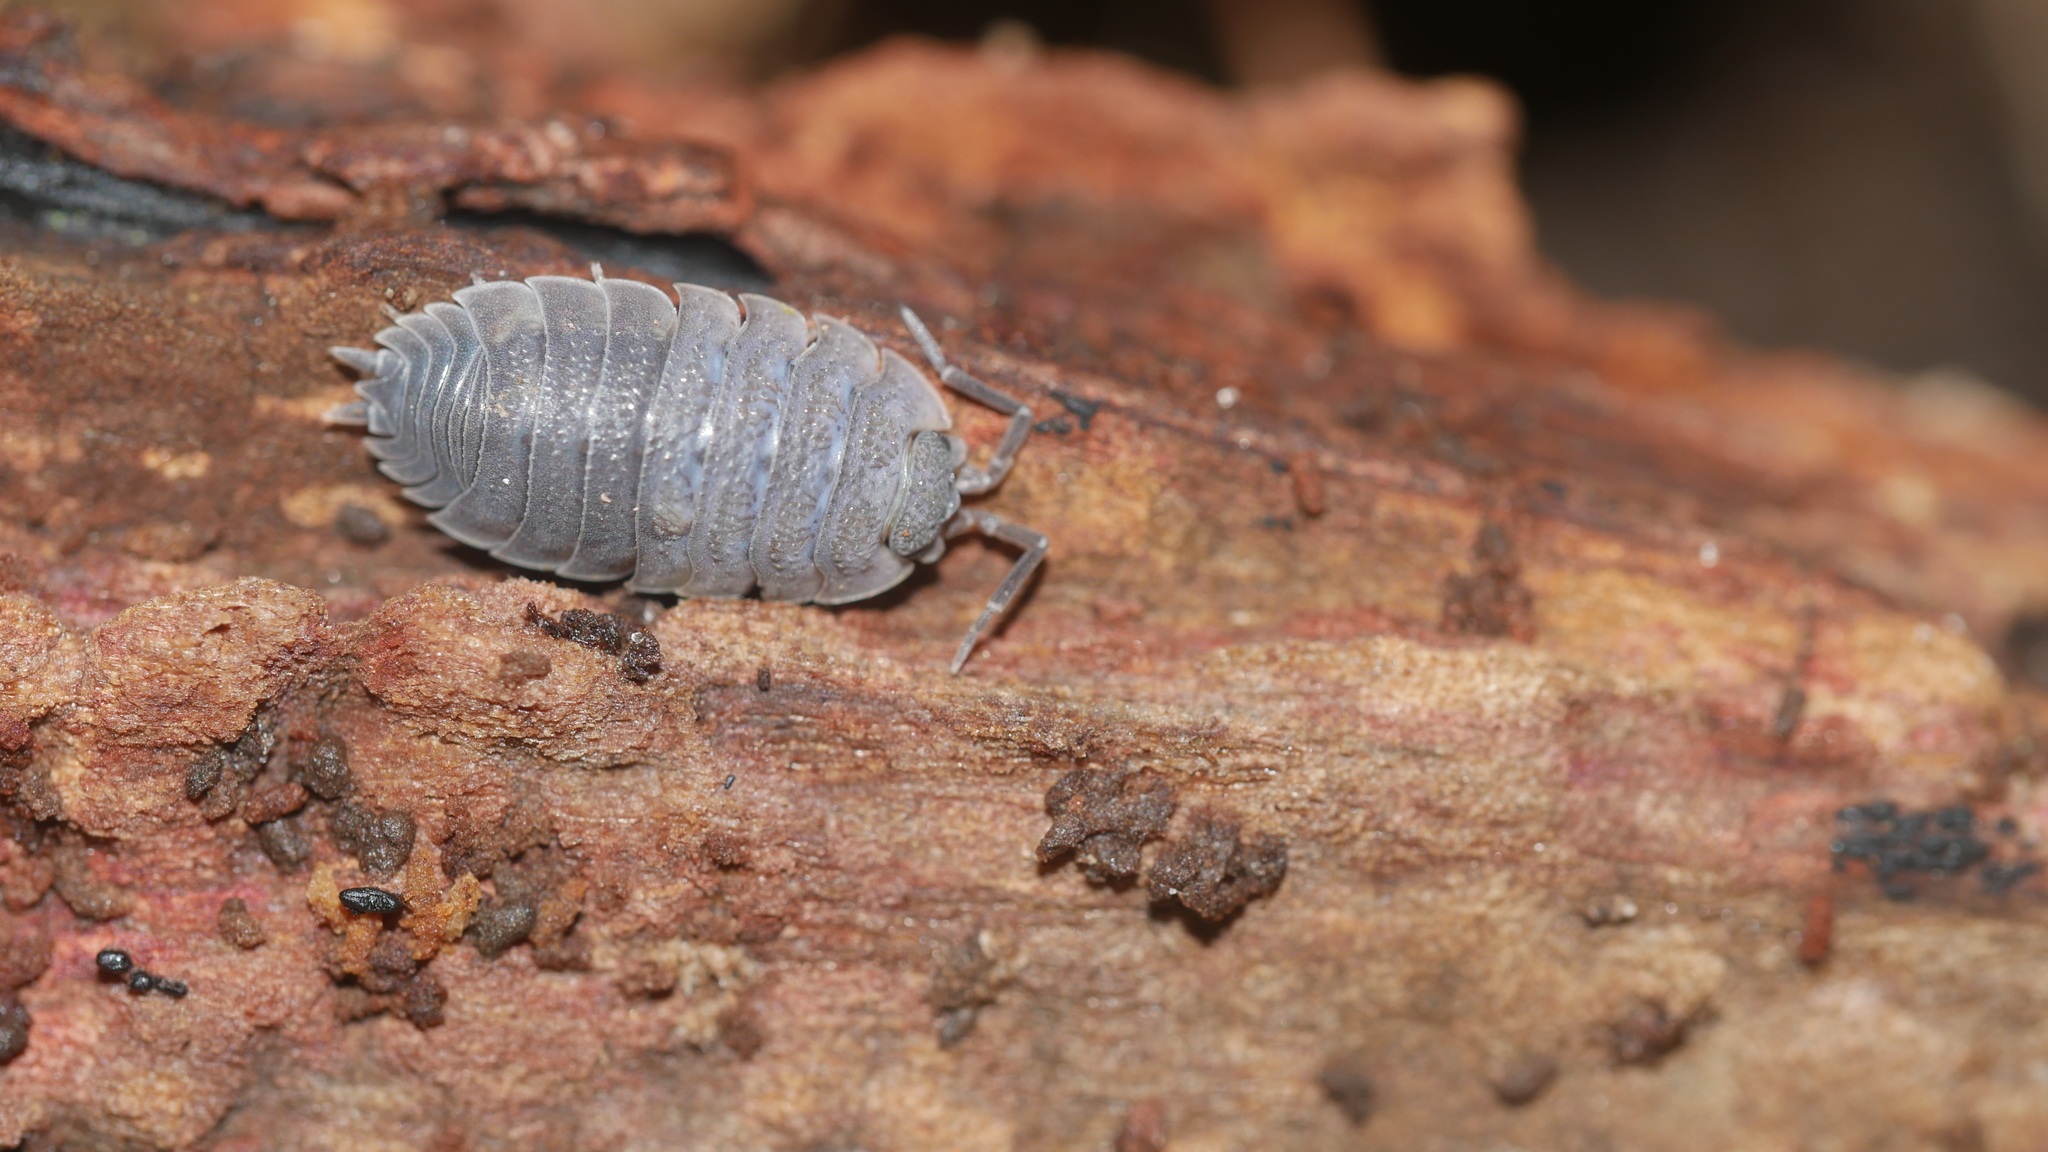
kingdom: Animalia
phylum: Arthropoda
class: Malacostraca
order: Isopoda
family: Porcellionidae
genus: Porcellio
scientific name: Porcellio scaber
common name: Common rough woodlouse
